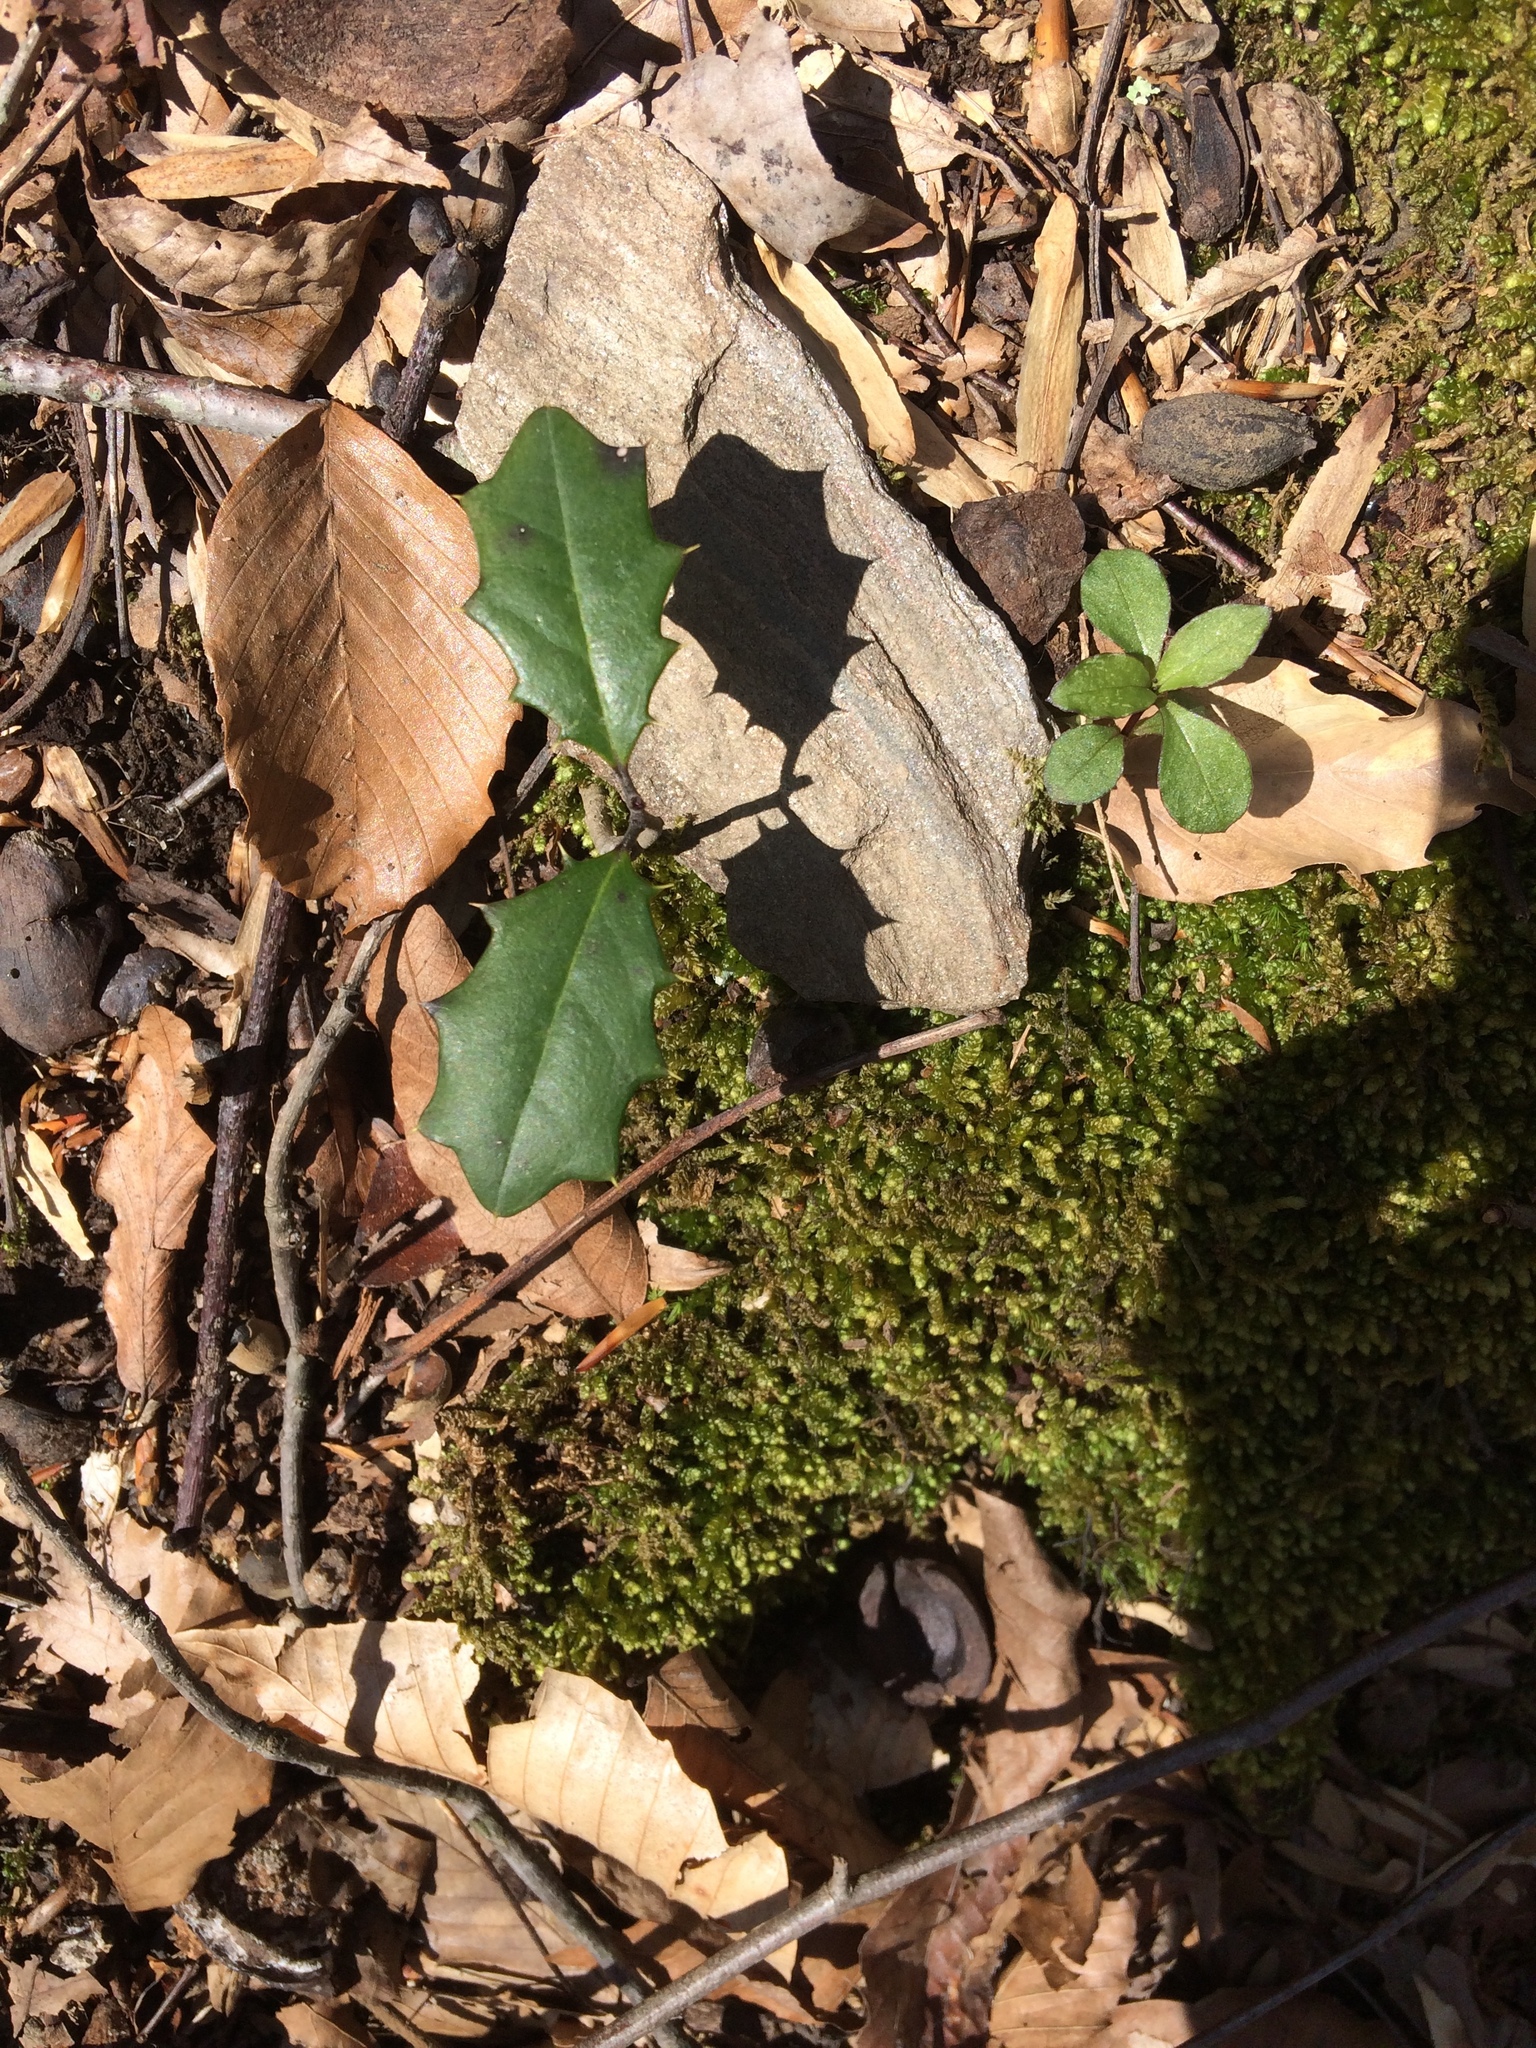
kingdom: Plantae
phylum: Tracheophyta
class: Magnoliopsida
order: Aquifoliales
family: Aquifoliaceae
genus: Ilex
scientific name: Ilex opaca
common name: American holly
